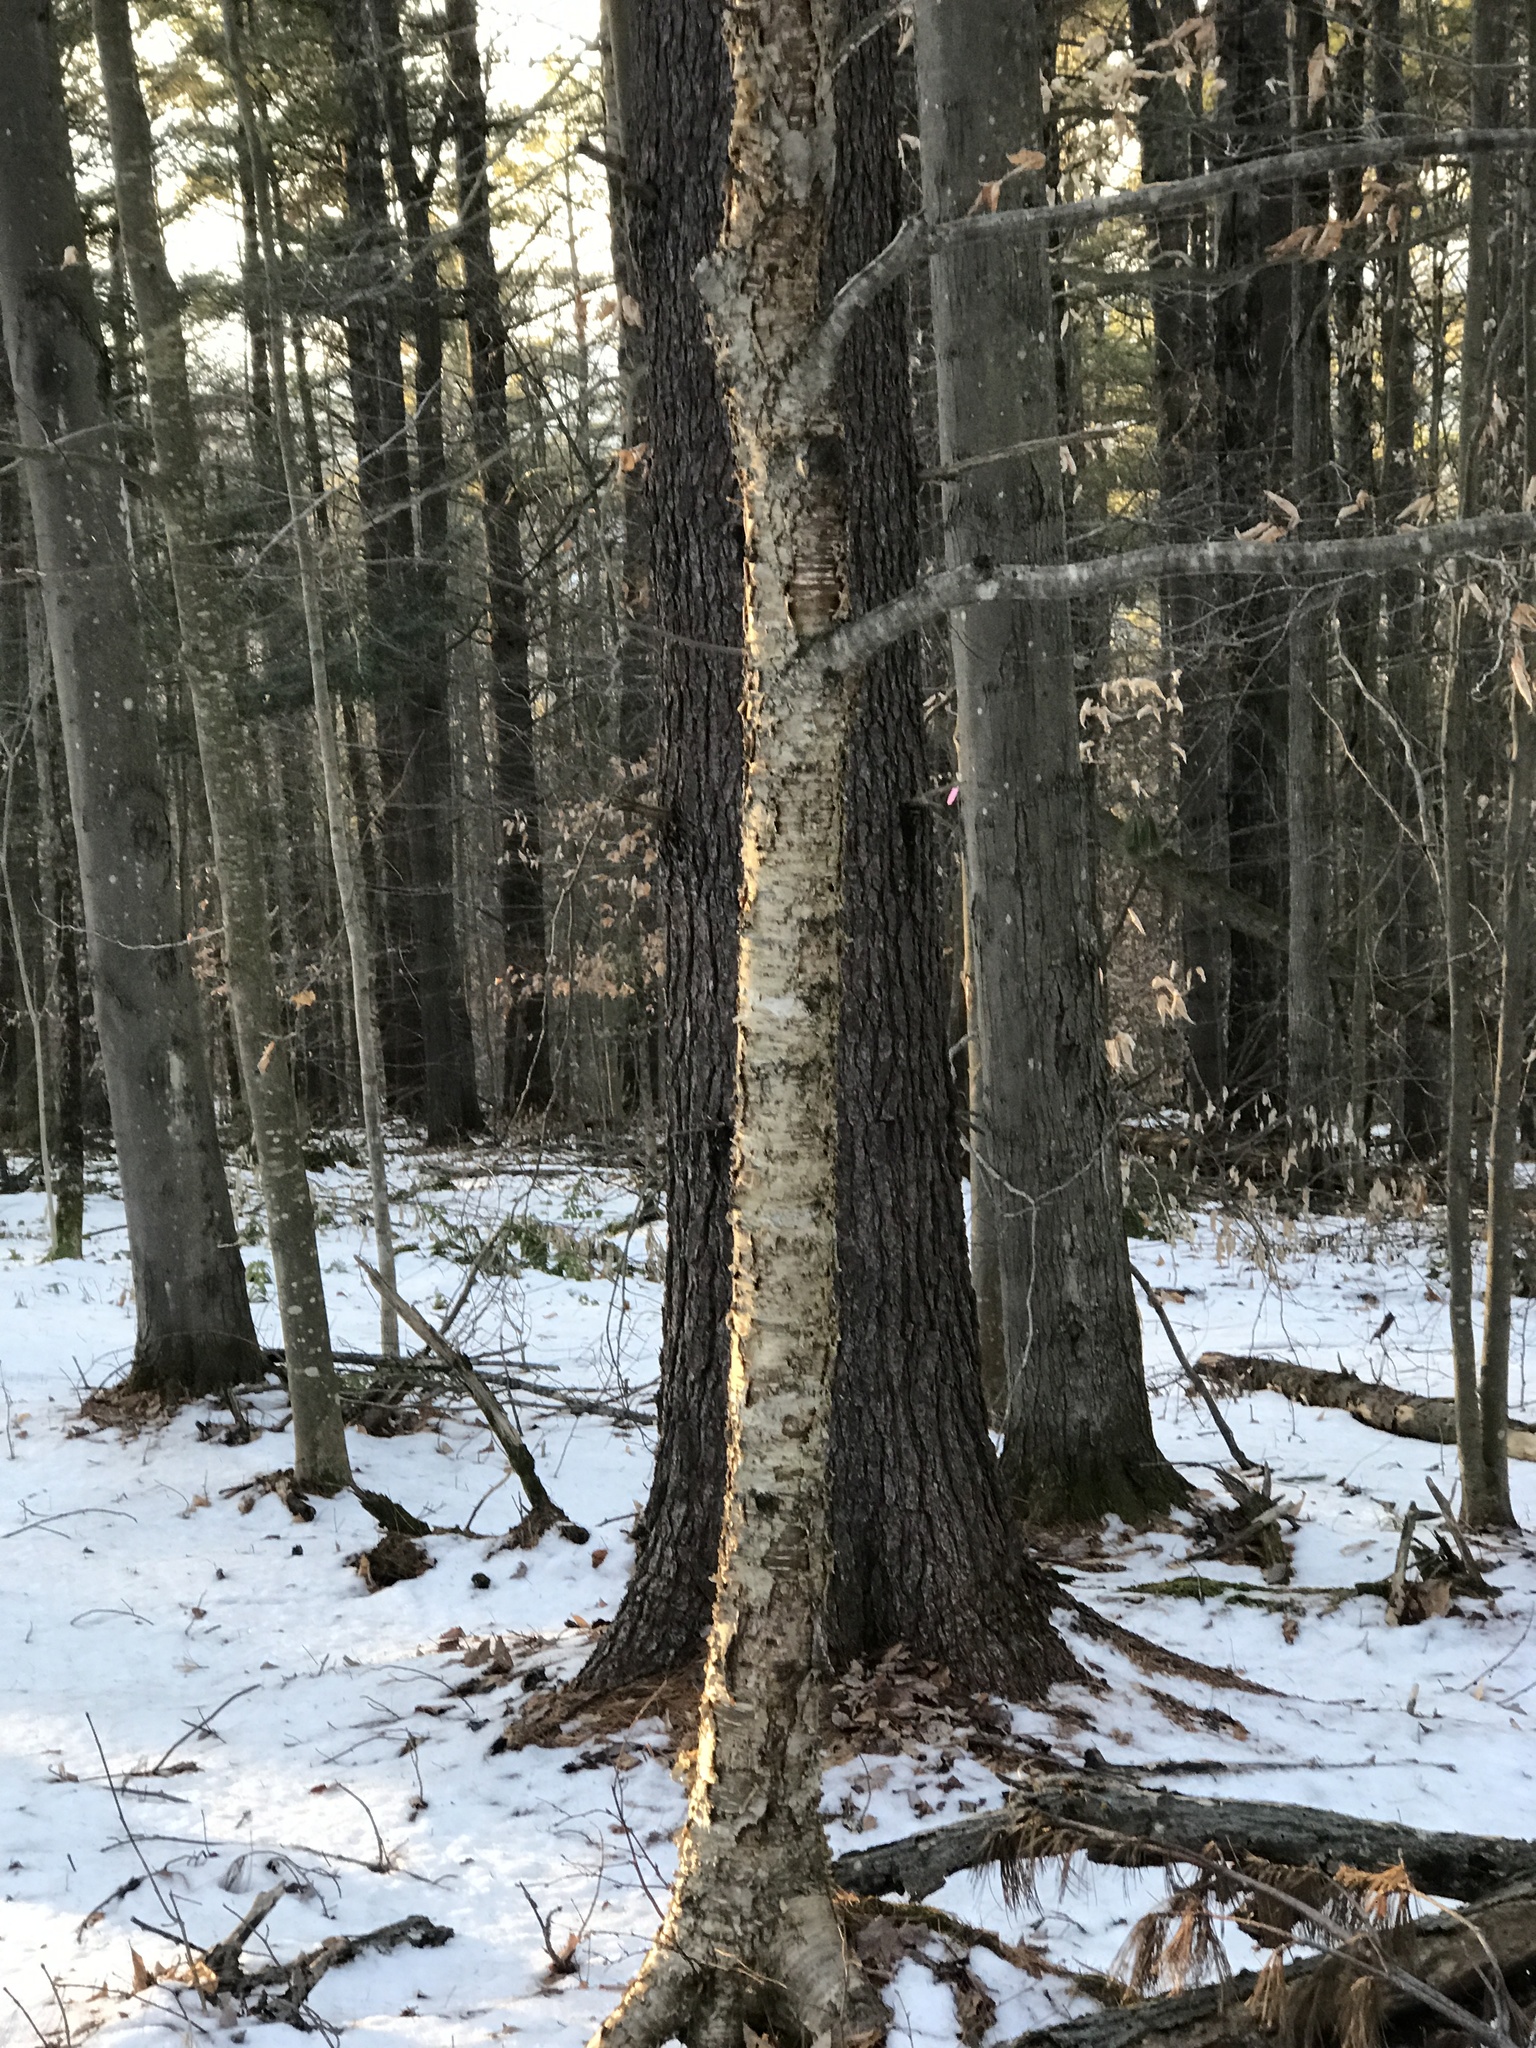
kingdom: Plantae
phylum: Tracheophyta
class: Magnoliopsida
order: Fagales
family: Betulaceae
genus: Betula
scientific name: Betula alleghaniensis
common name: Yellow birch
